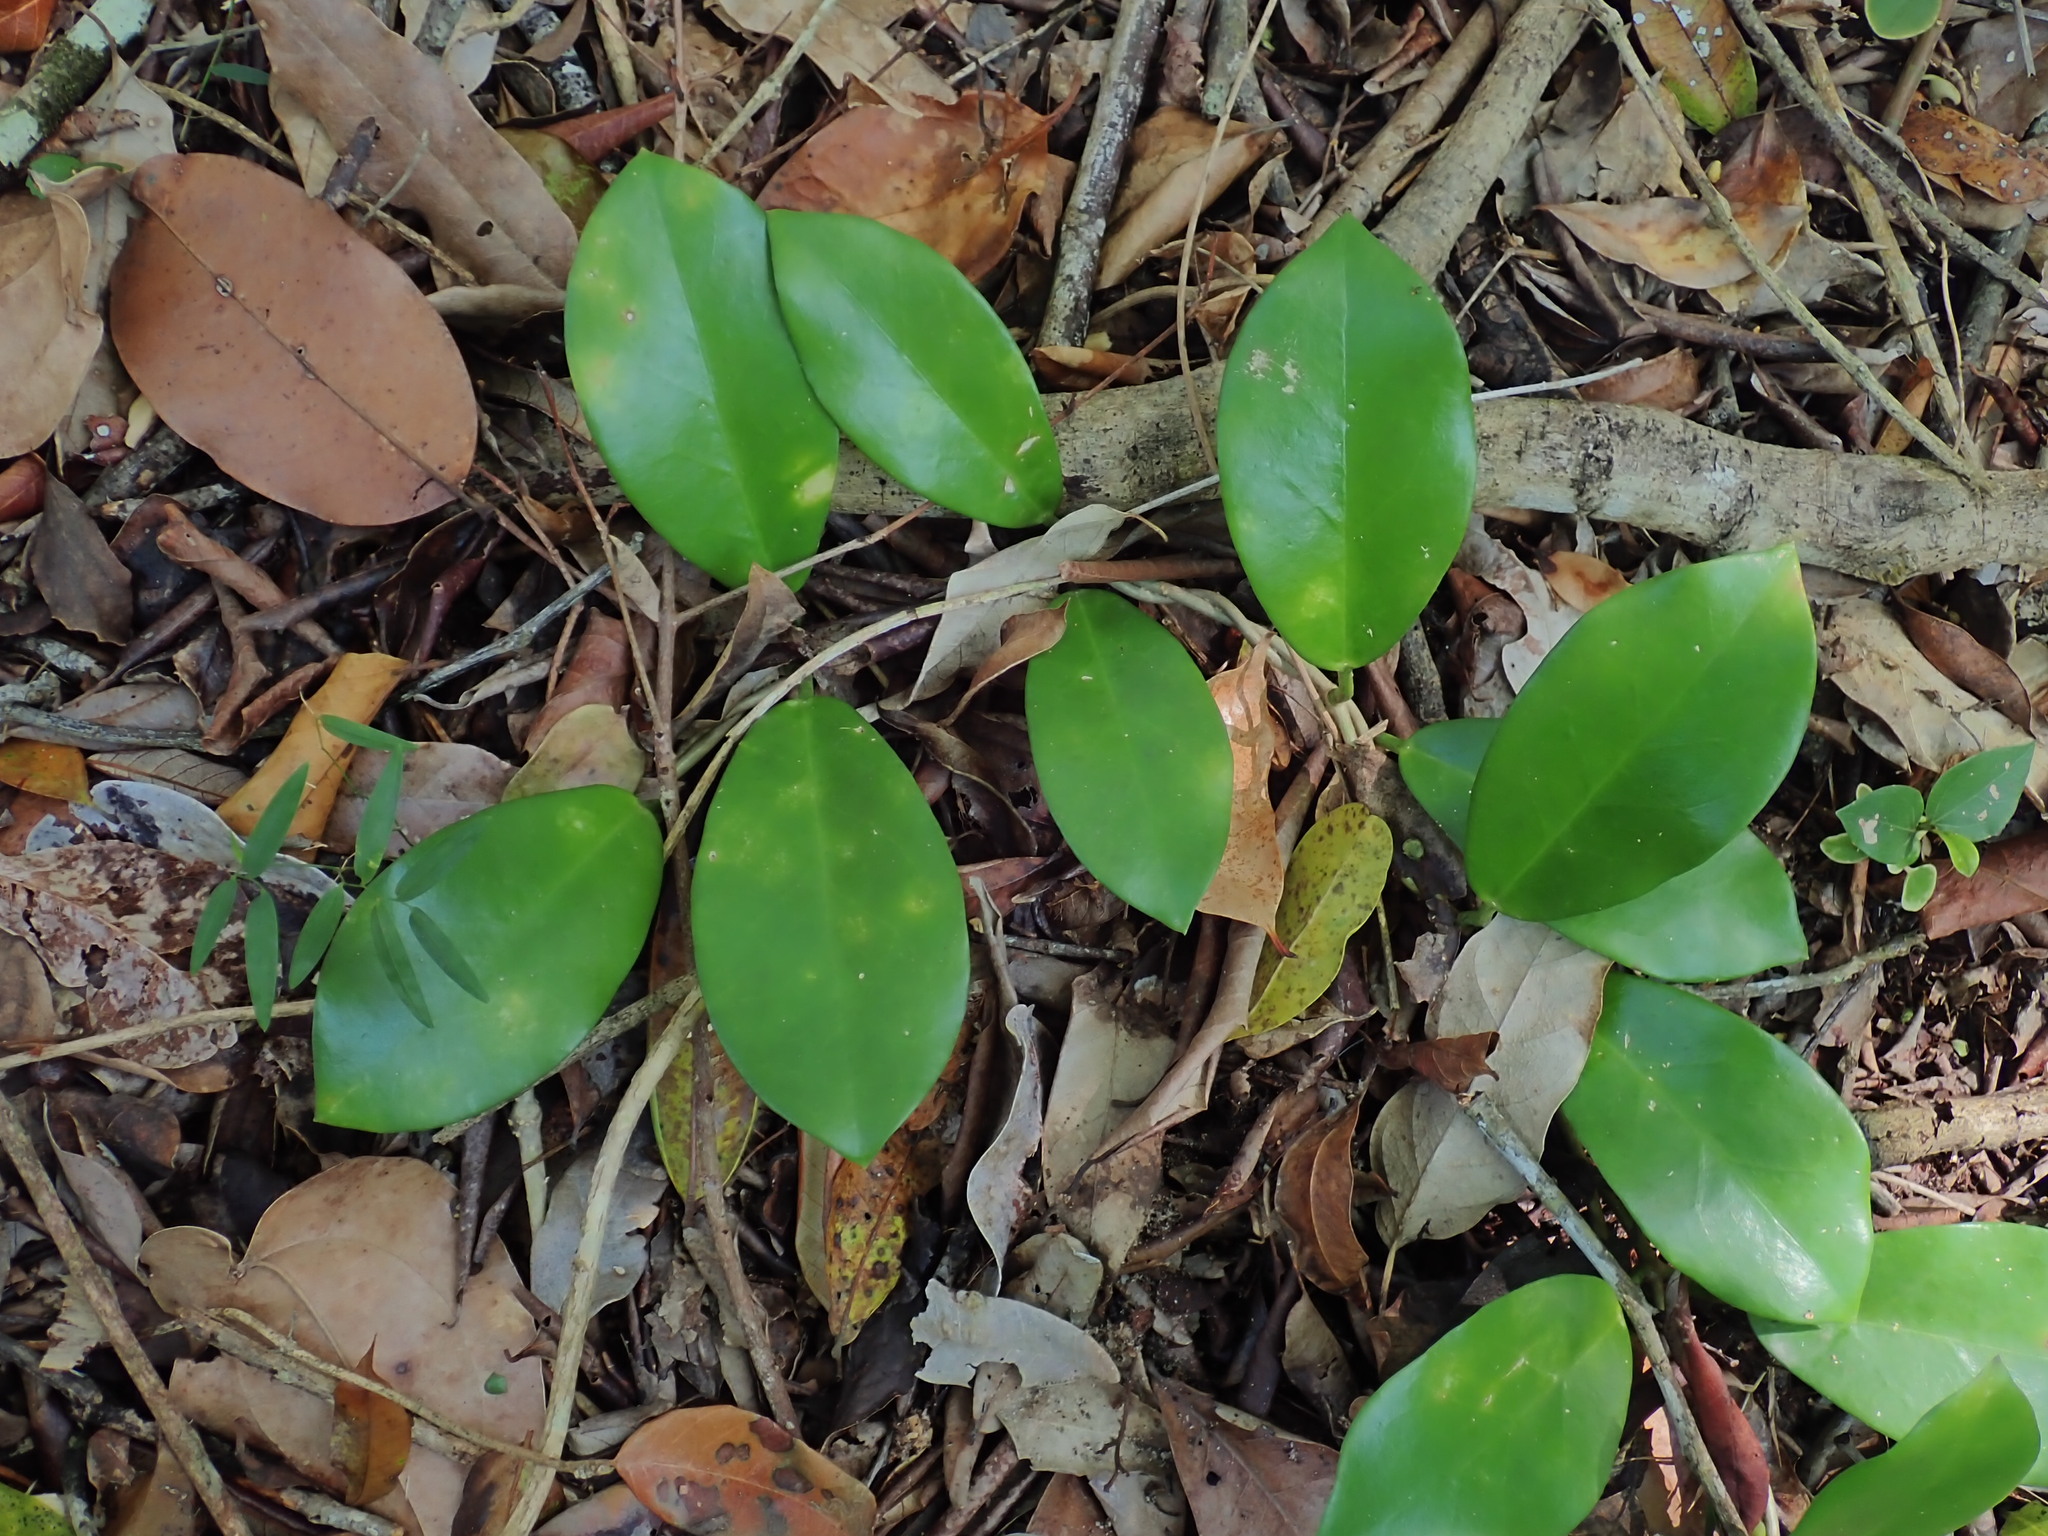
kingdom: Plantae
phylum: Tracheophyta
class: Magnoliopsida
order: Gentianales
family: Apocynaceae
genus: Hoya
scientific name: Hoya australis
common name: Wax flower
